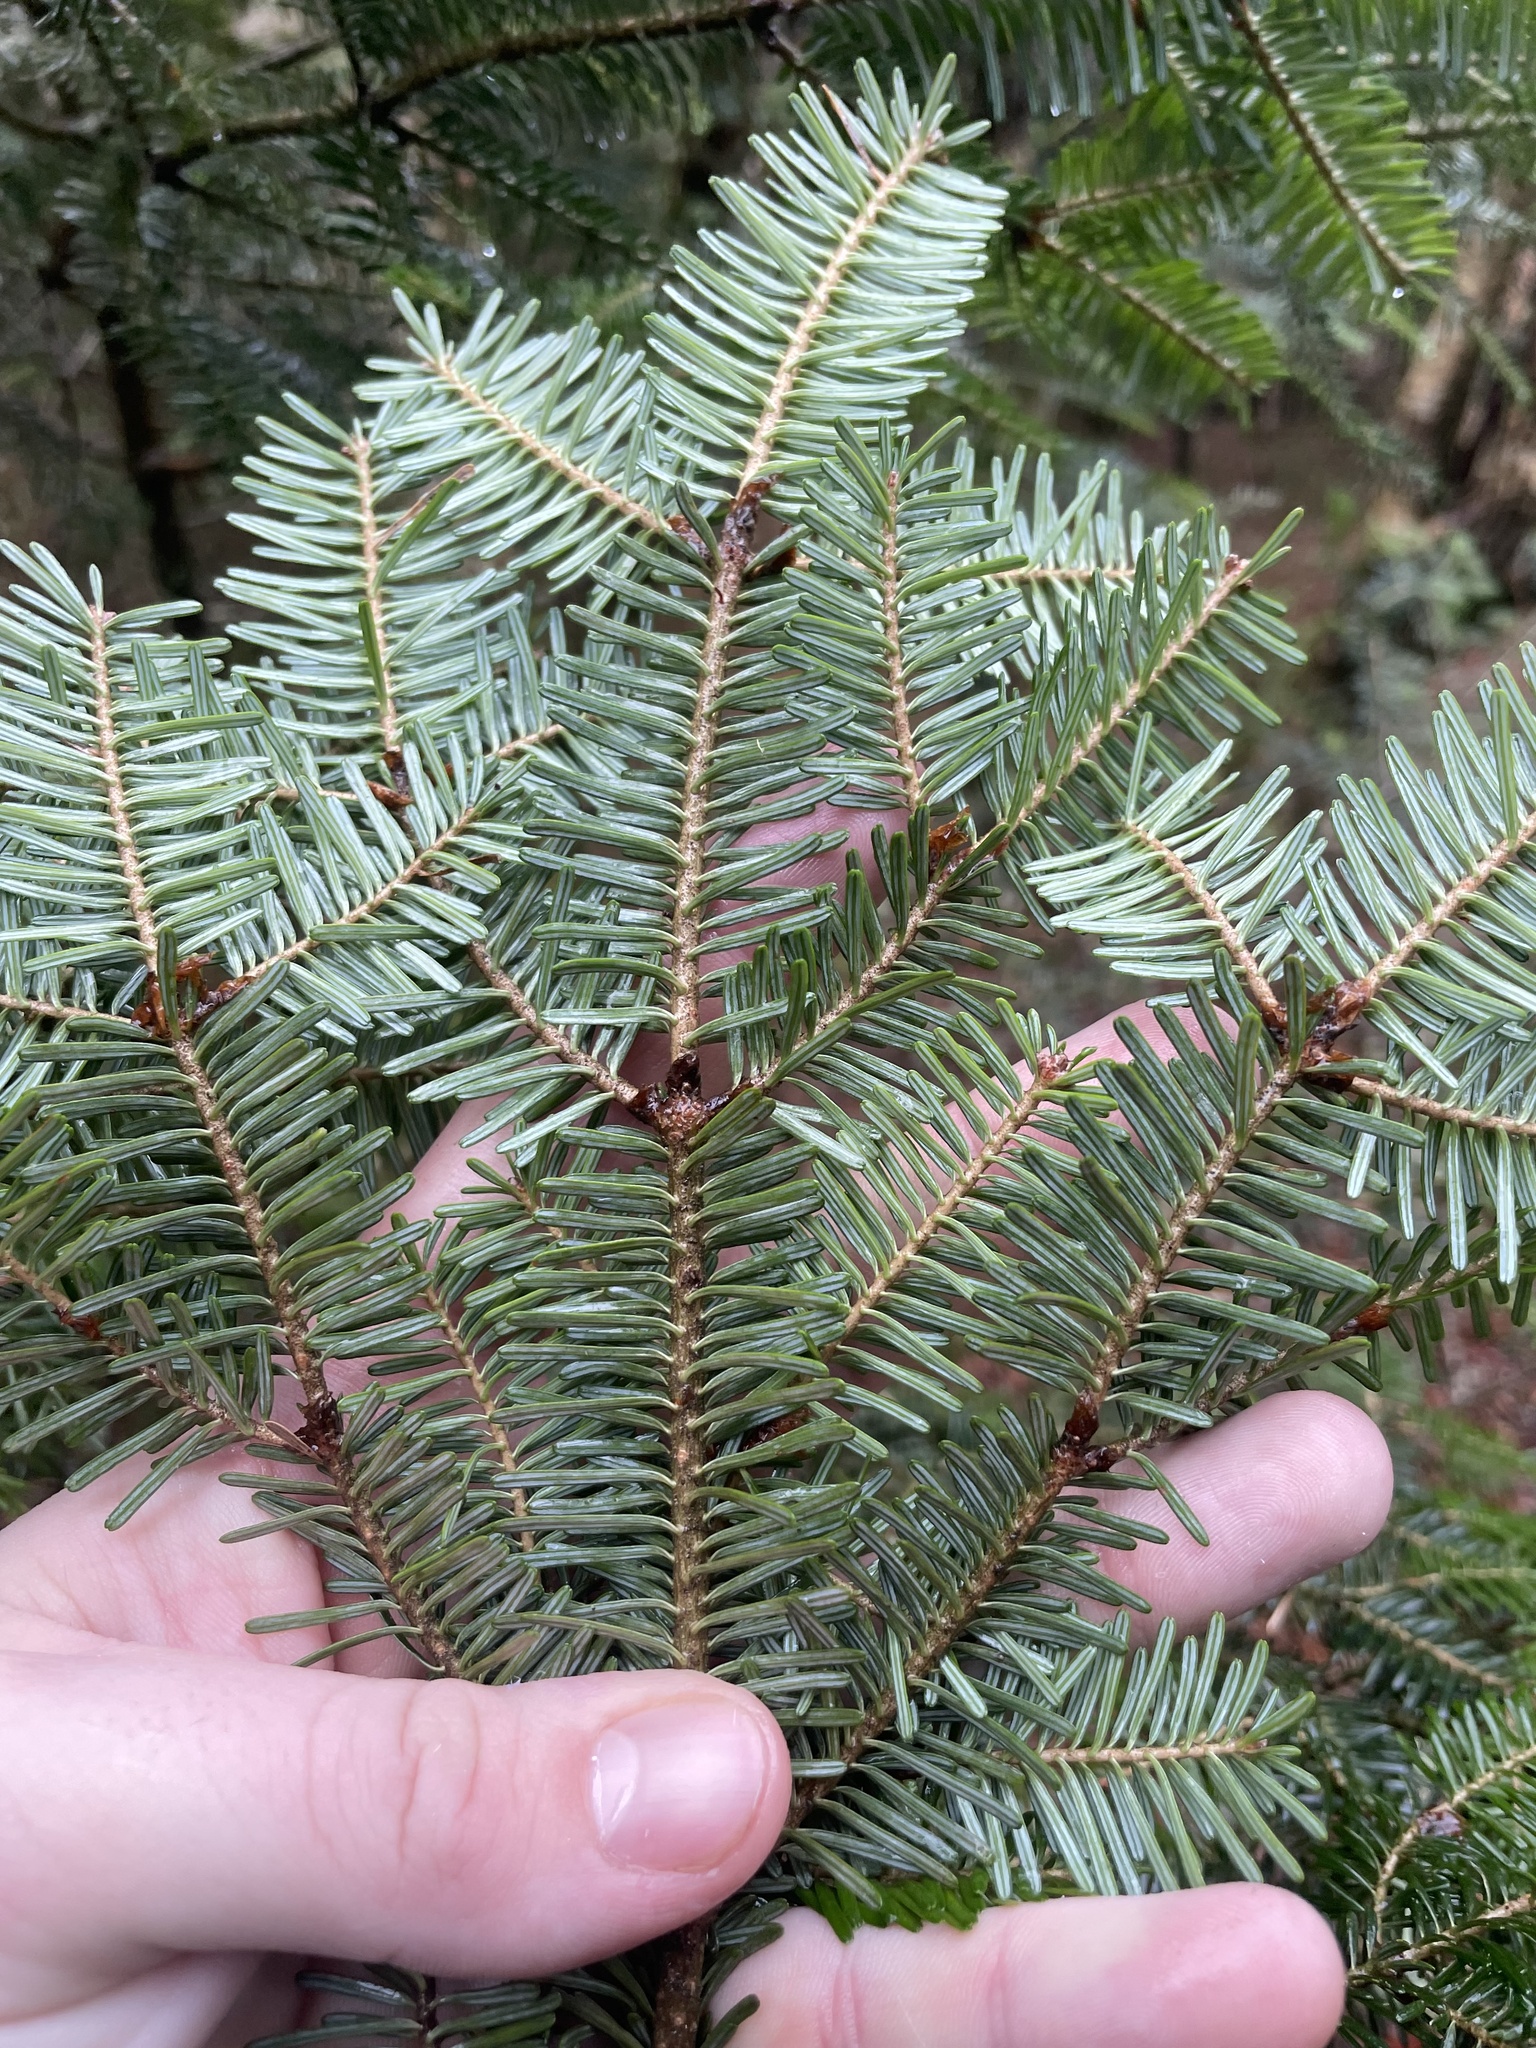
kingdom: Plantae
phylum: Tracheophyta
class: Pinopsida
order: Pinales
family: Pinaceae
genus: Abies
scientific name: Abies fraseri
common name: Fraser fir
